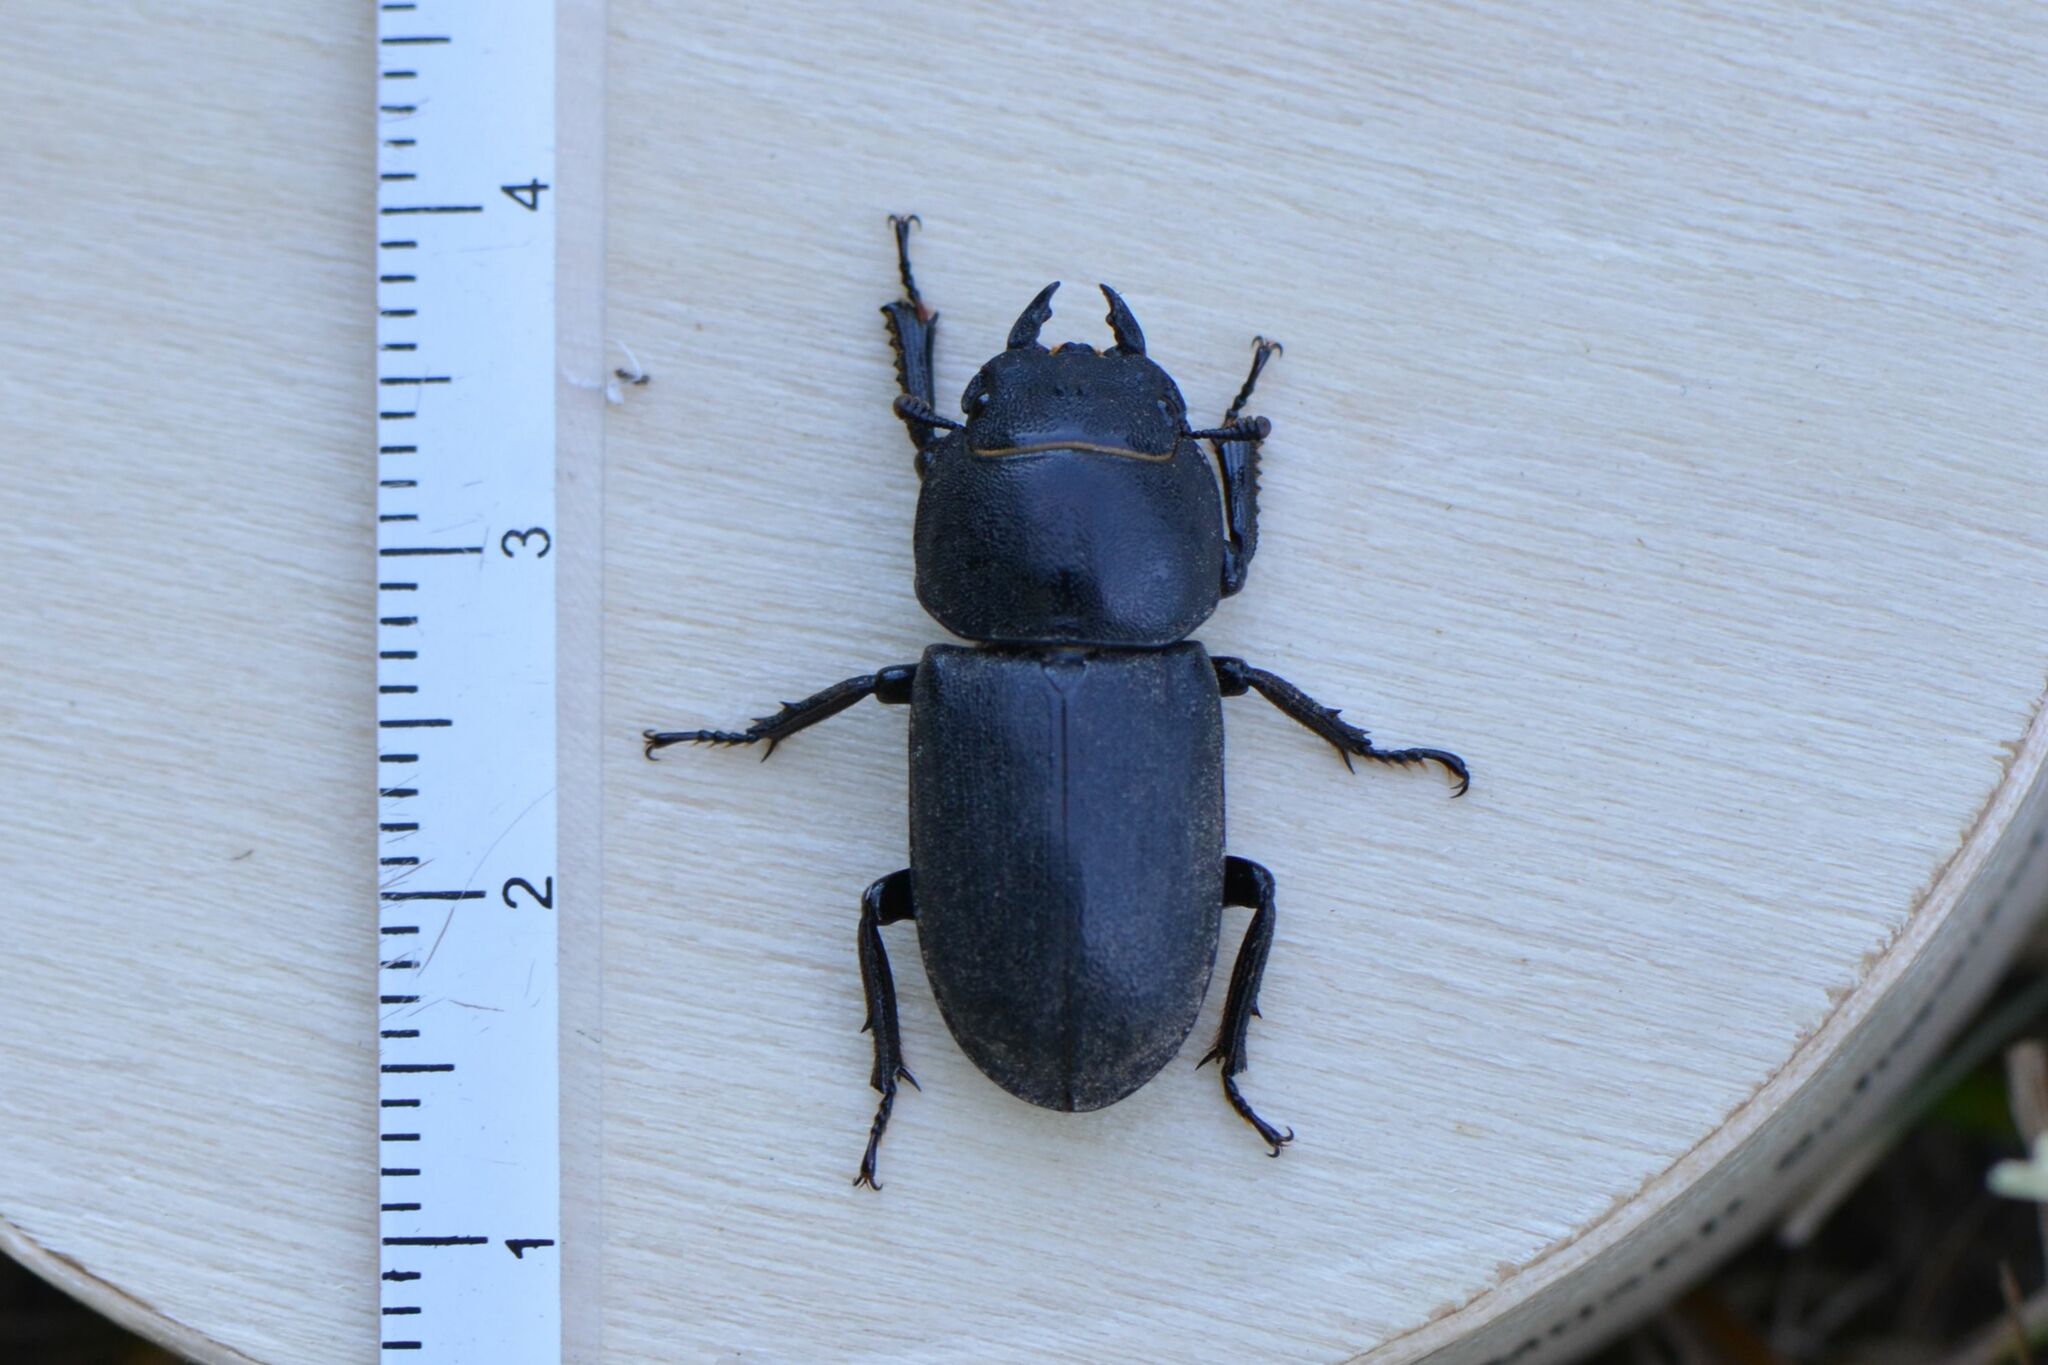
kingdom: Animalia
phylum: Arthropoda
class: Insecta
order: Coleoptera
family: Lucanidae
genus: Dorcus
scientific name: Dorcus parallelipipedus
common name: Lesser stag beetle
